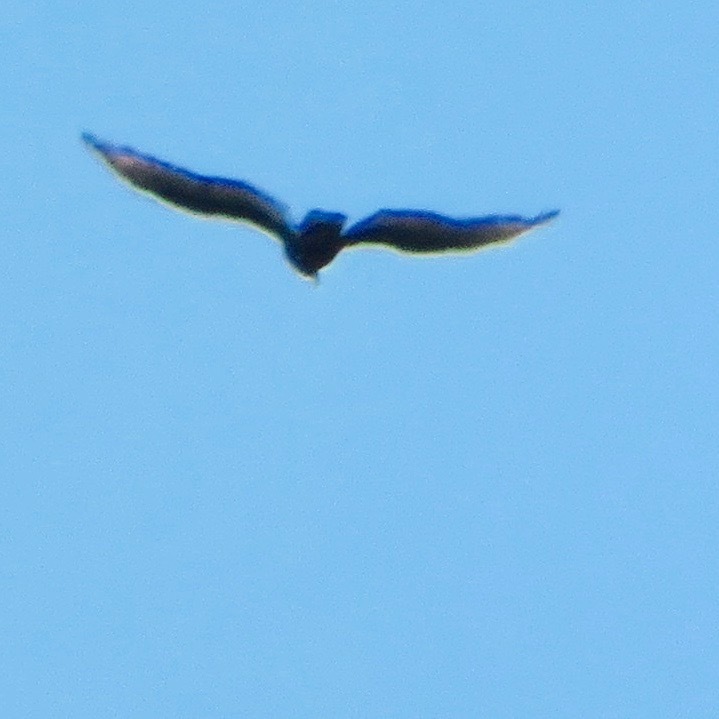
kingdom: Animalia
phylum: Chordata
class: Aves
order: Accipitriformes
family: Cathartidae
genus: Cathartes
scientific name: Cathartes aura
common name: Turkey vulture
